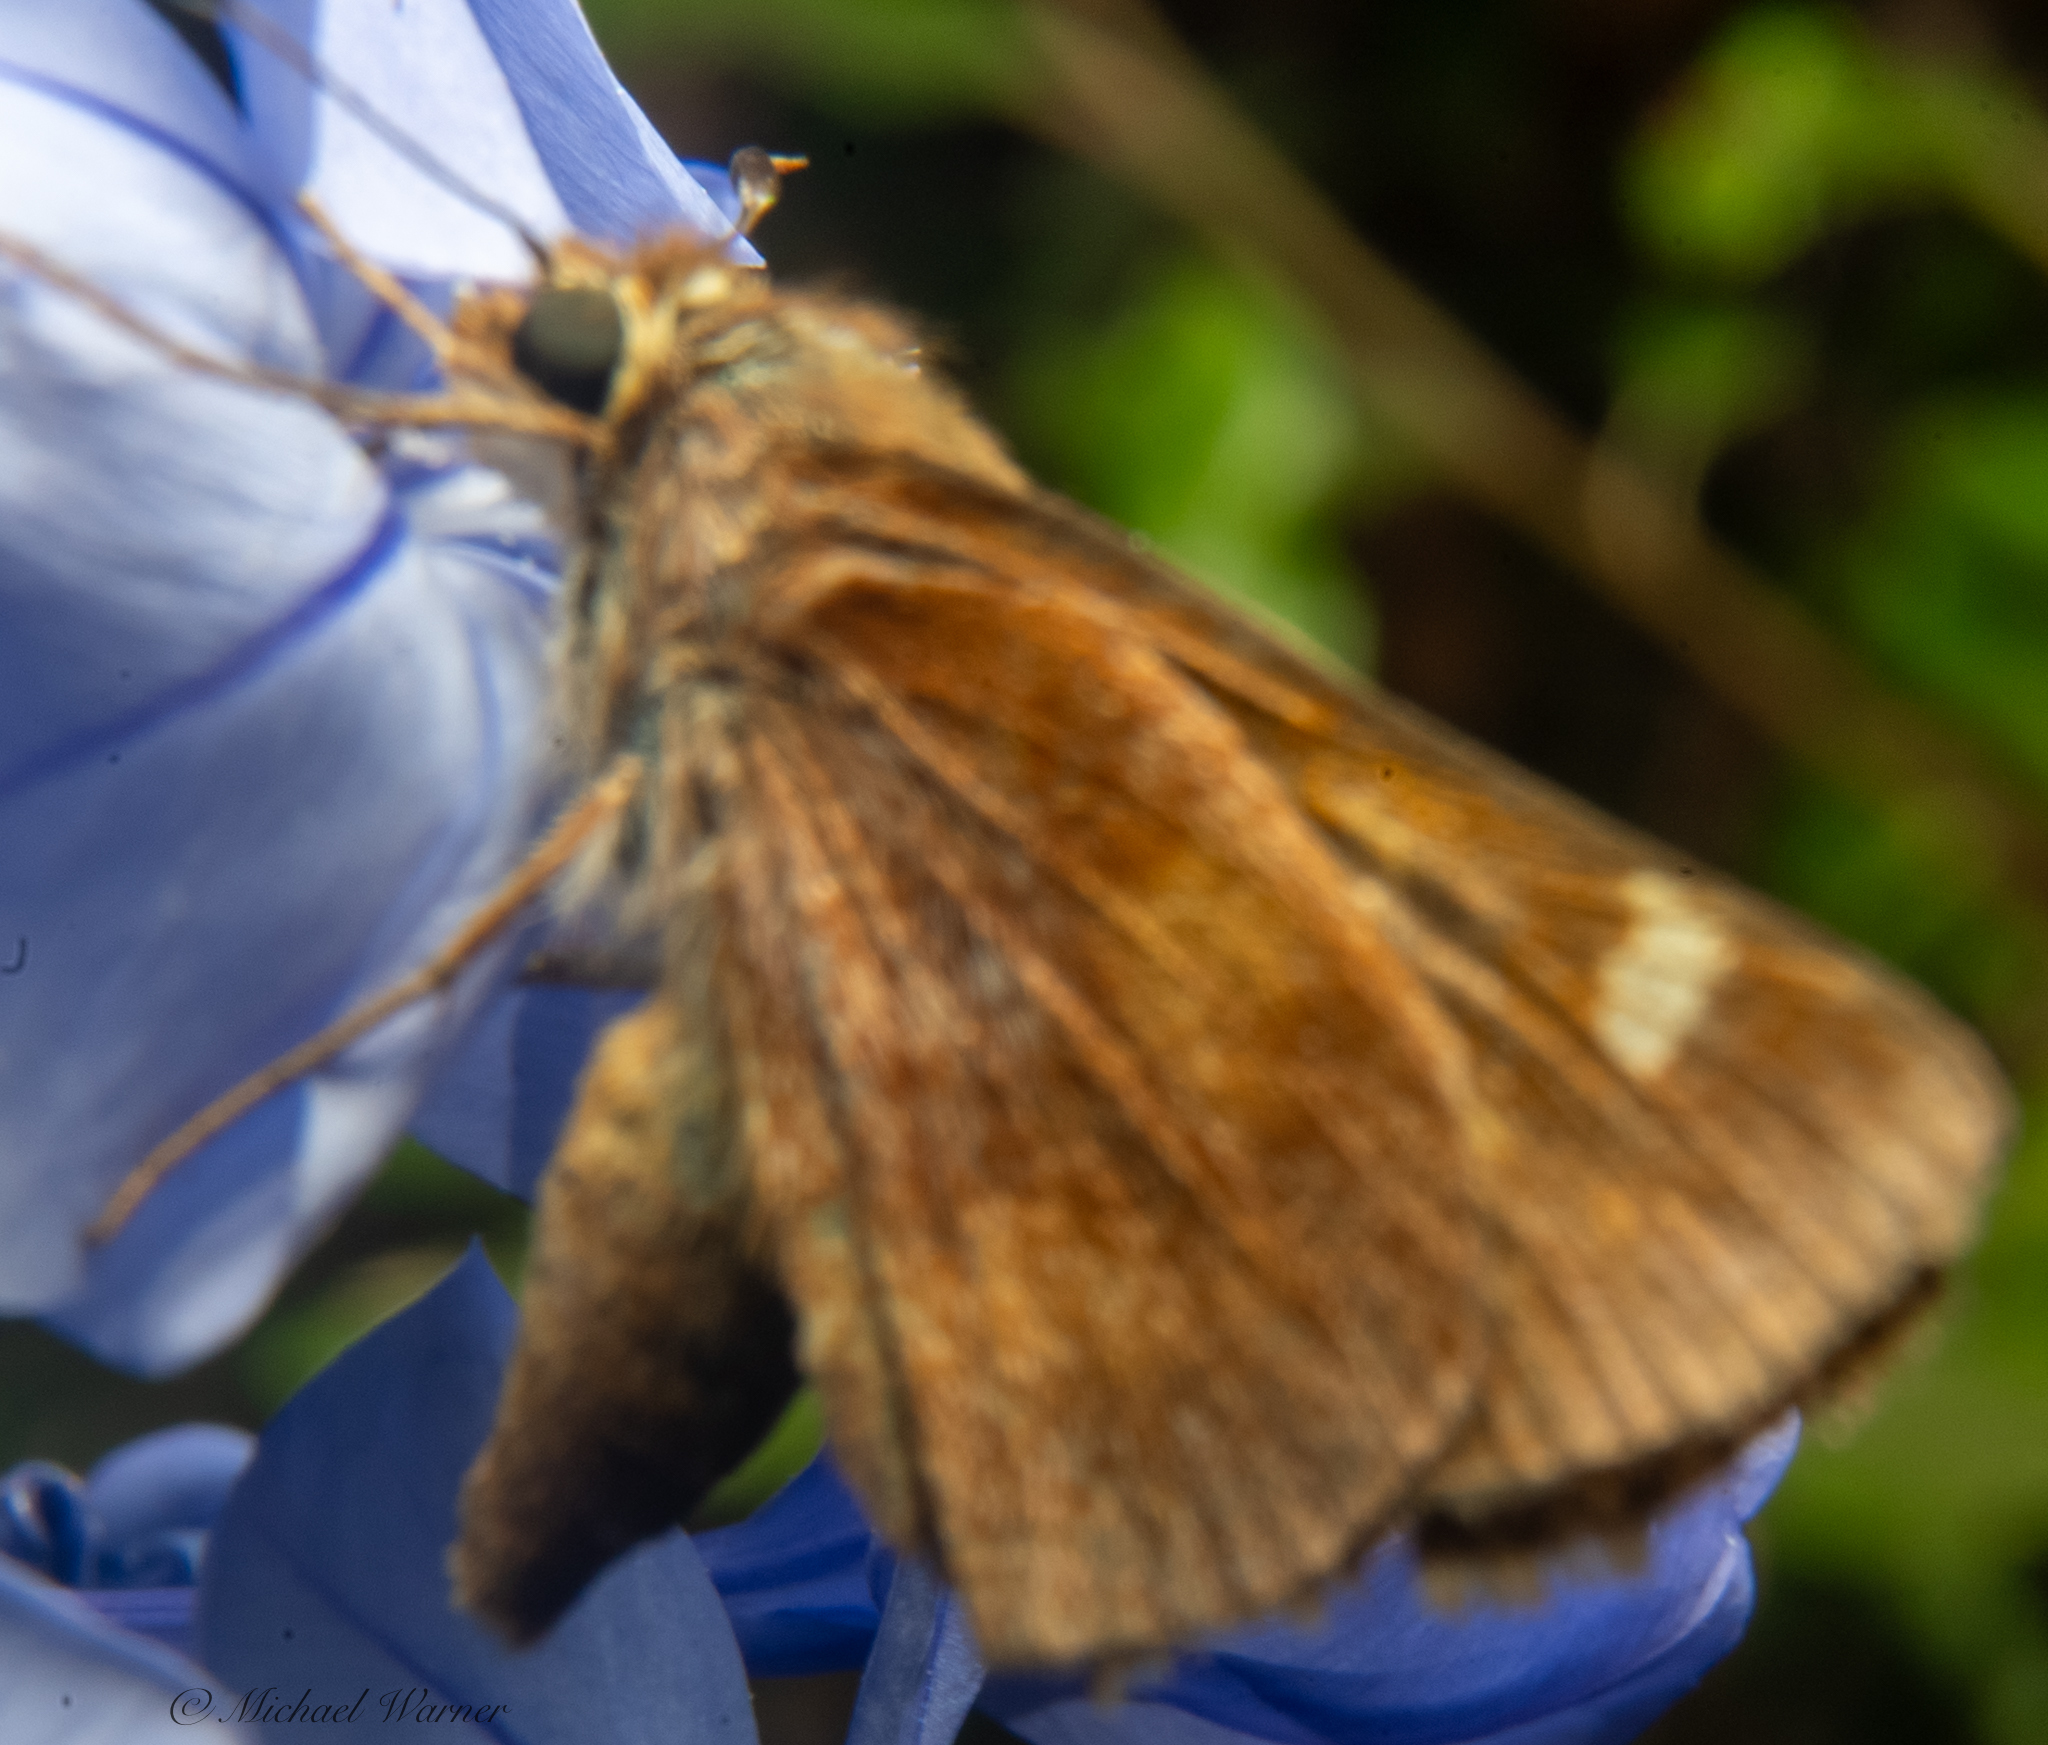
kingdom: Animalia
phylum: Arthropoda
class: Insecta
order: Lepidoptera
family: Hesperiidae
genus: Lon
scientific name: Lon melane
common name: Umber skipper
